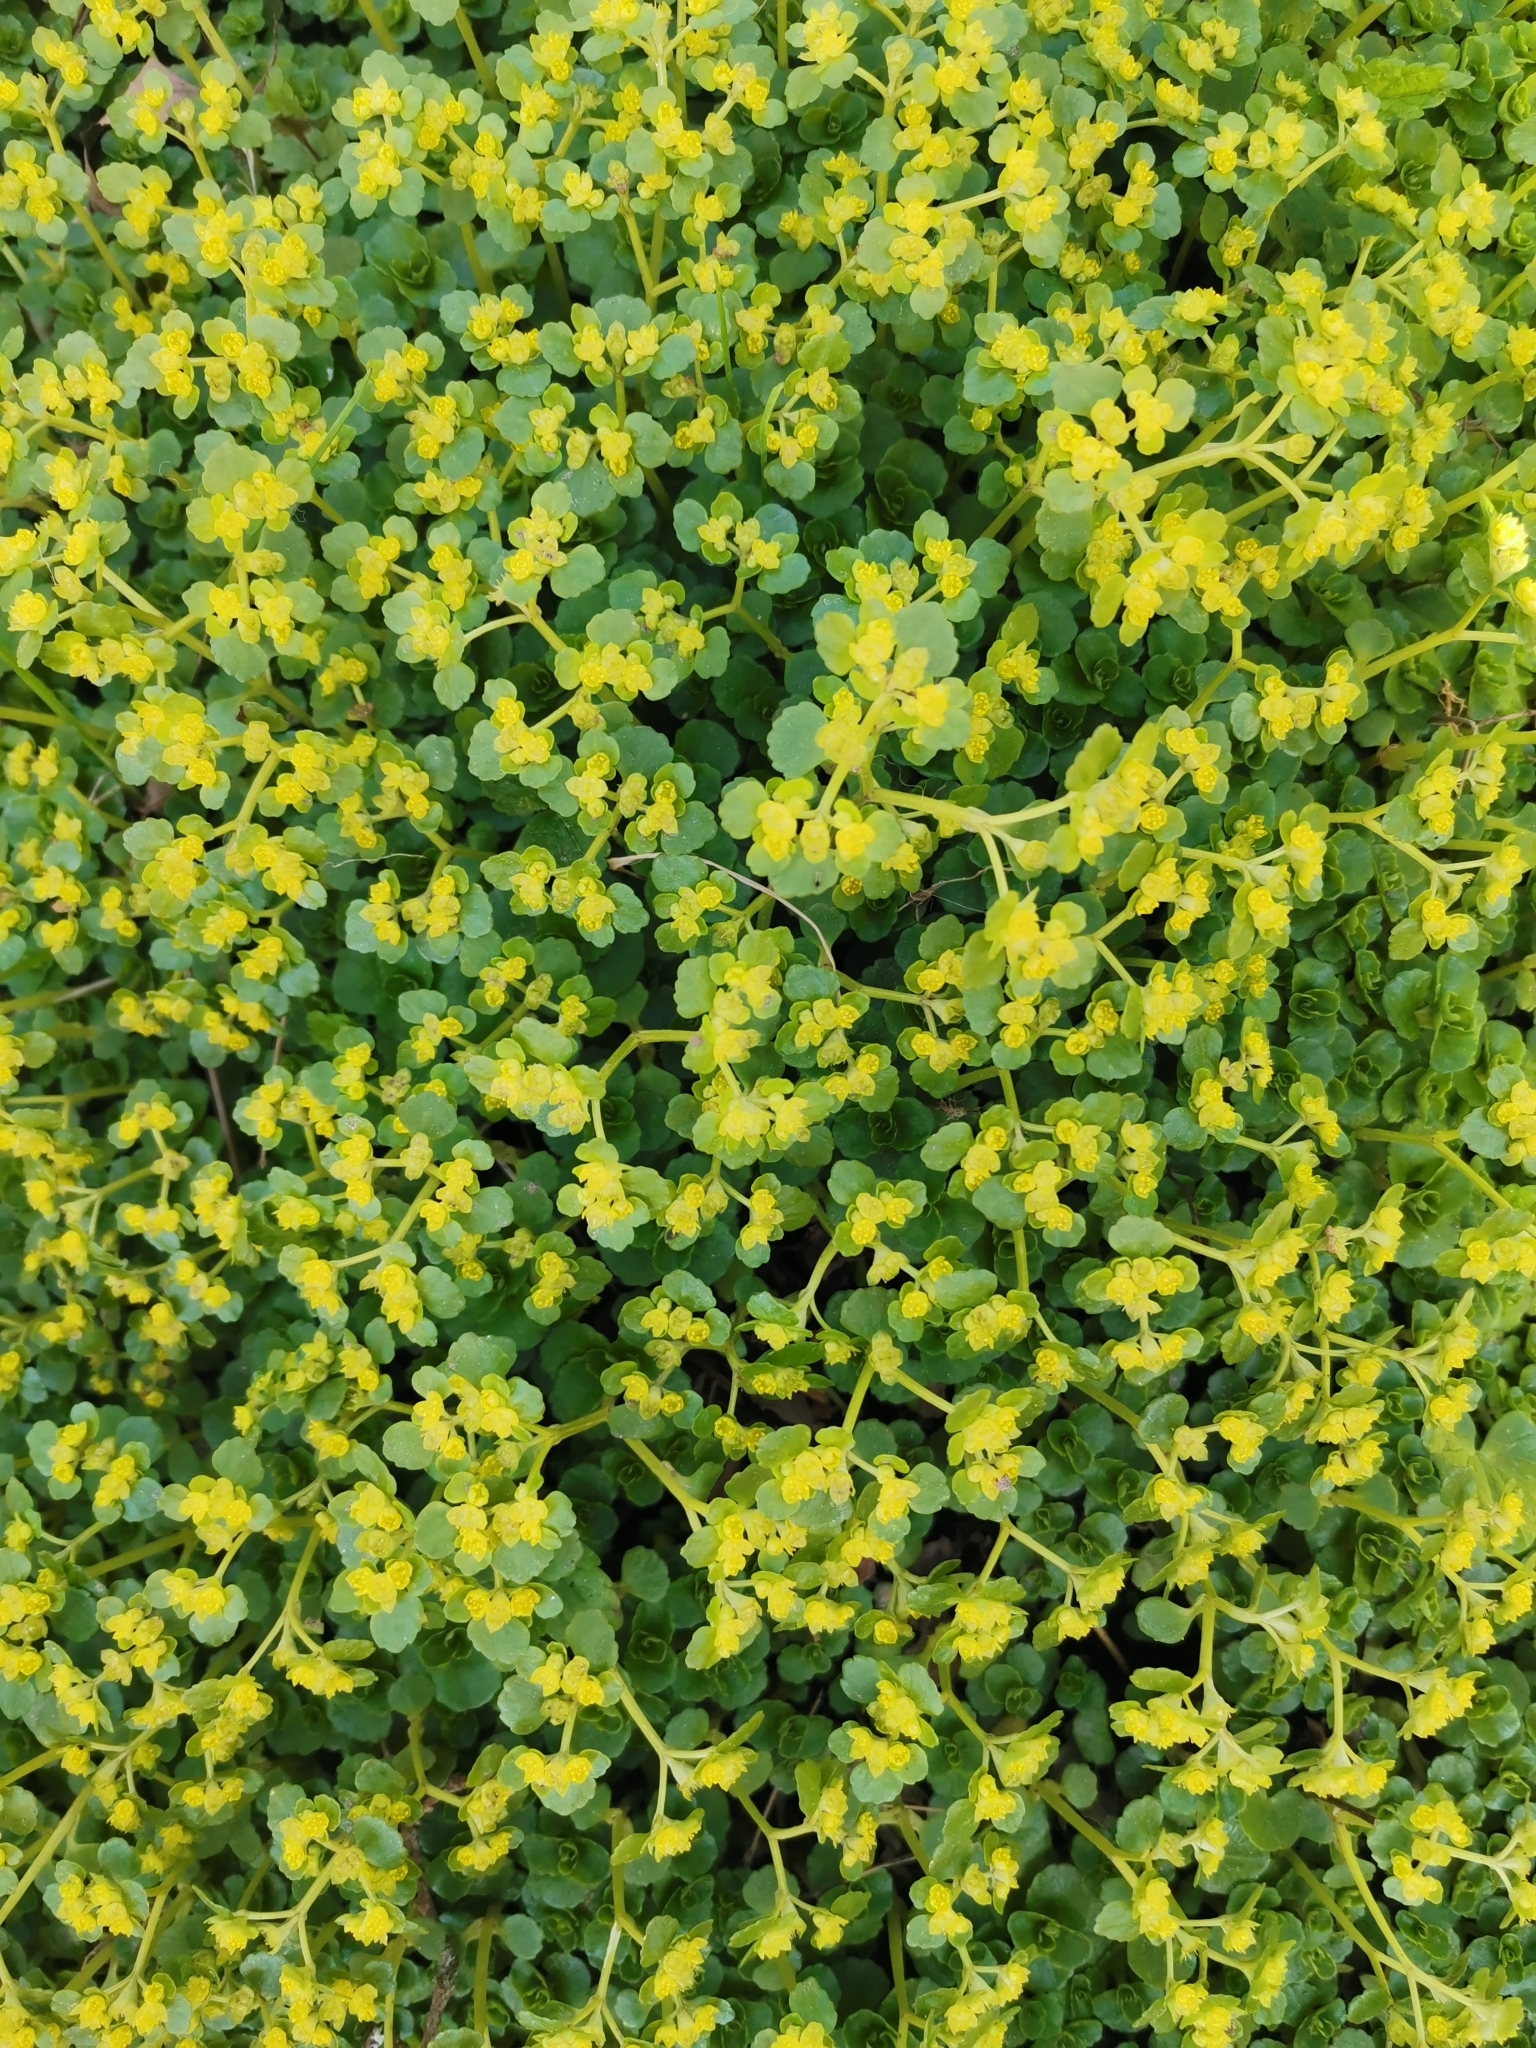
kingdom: Plantae
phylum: Tracheophyta
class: Magnoliopsida
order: Saxifragales
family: Saxifragaceae
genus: Chrysosplenium
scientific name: Chrysosplenium oppositifolium
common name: Opposite-leaved golden-saxifrage
